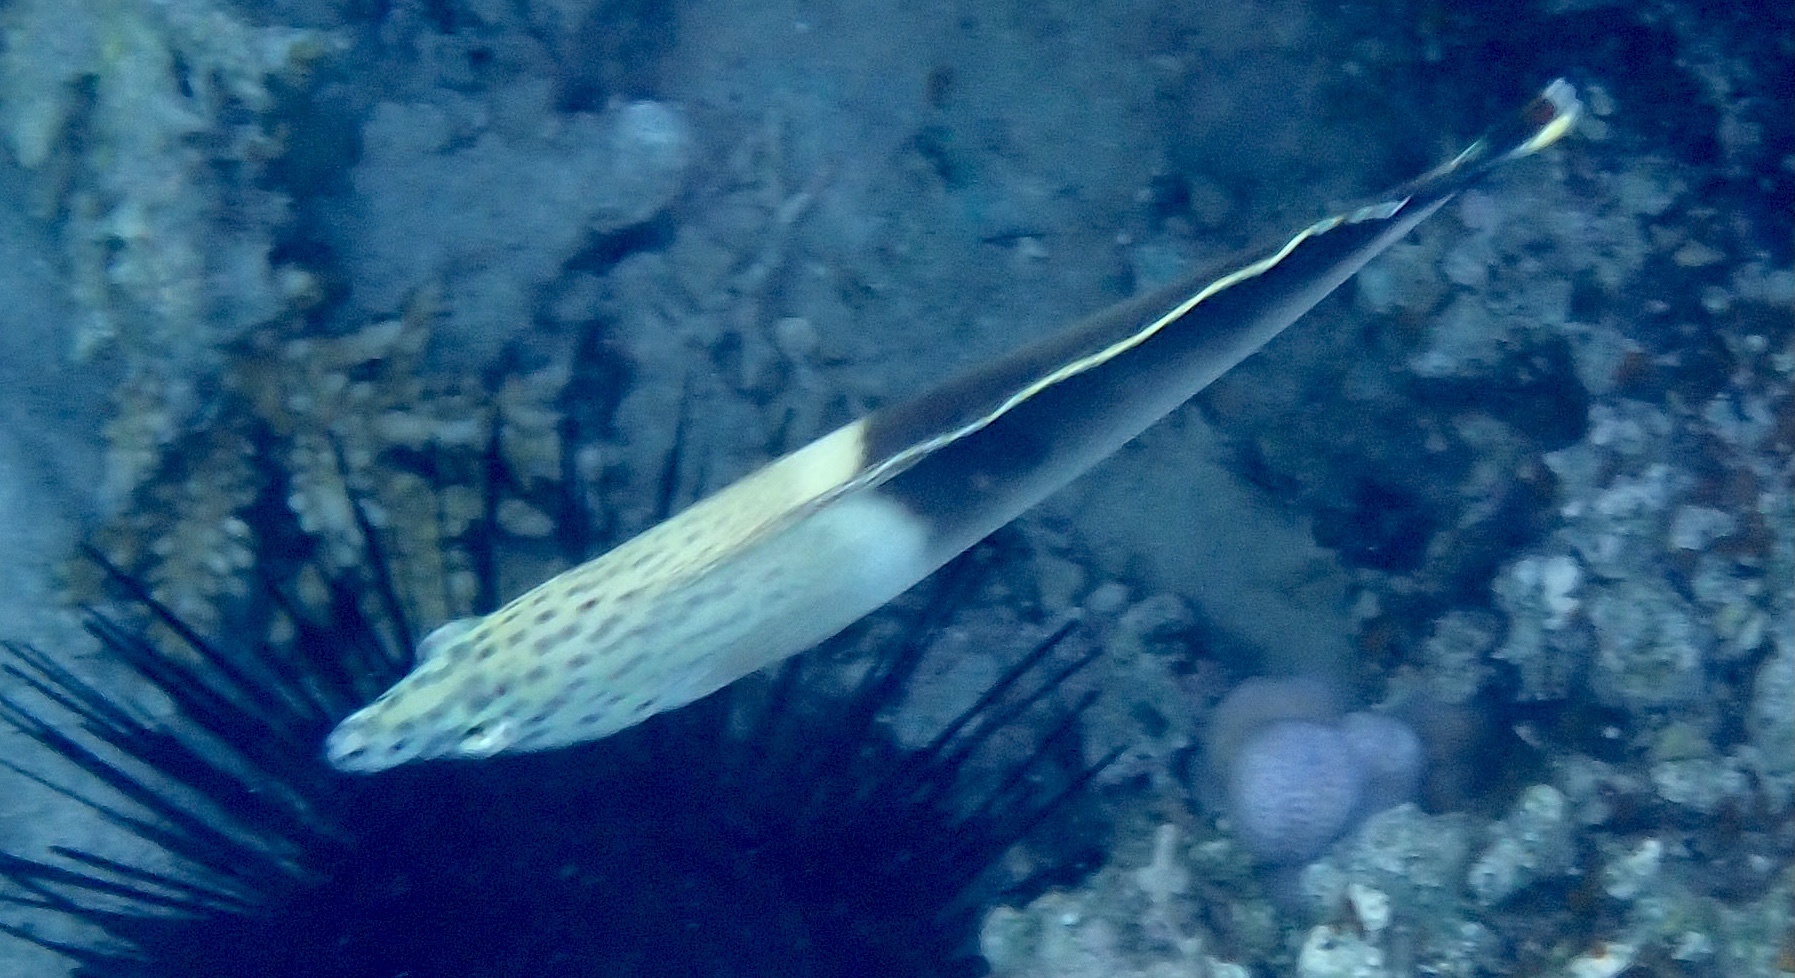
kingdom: Animalia
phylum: Chordata
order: Perciformes
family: Labridae
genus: Coris
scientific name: Coris aygula
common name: Clown coris
